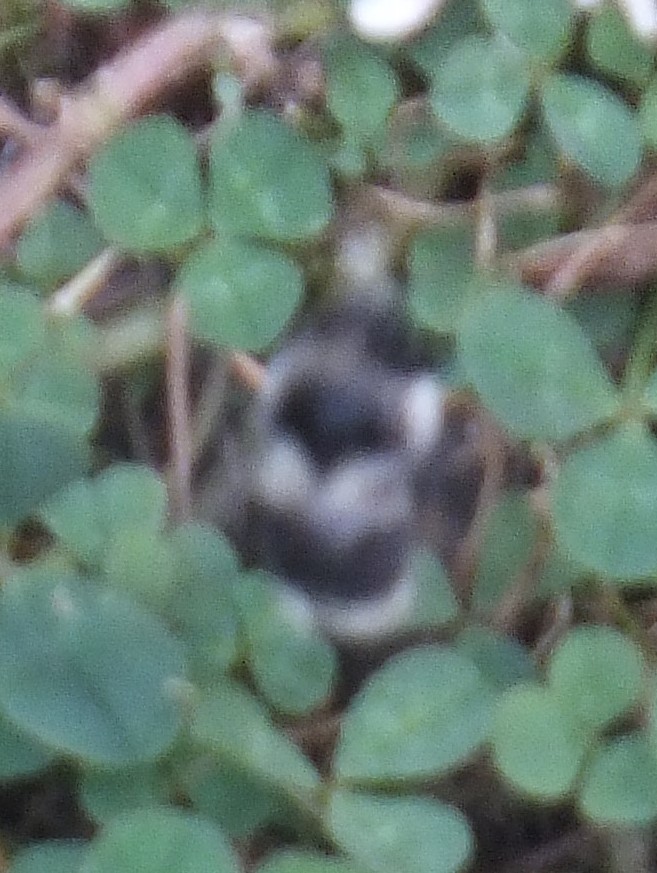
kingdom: Animalia
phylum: Arthropoda
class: Insecta
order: Hymenoptera
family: Apidae
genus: Bombus
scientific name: Bombus vancouverensis
